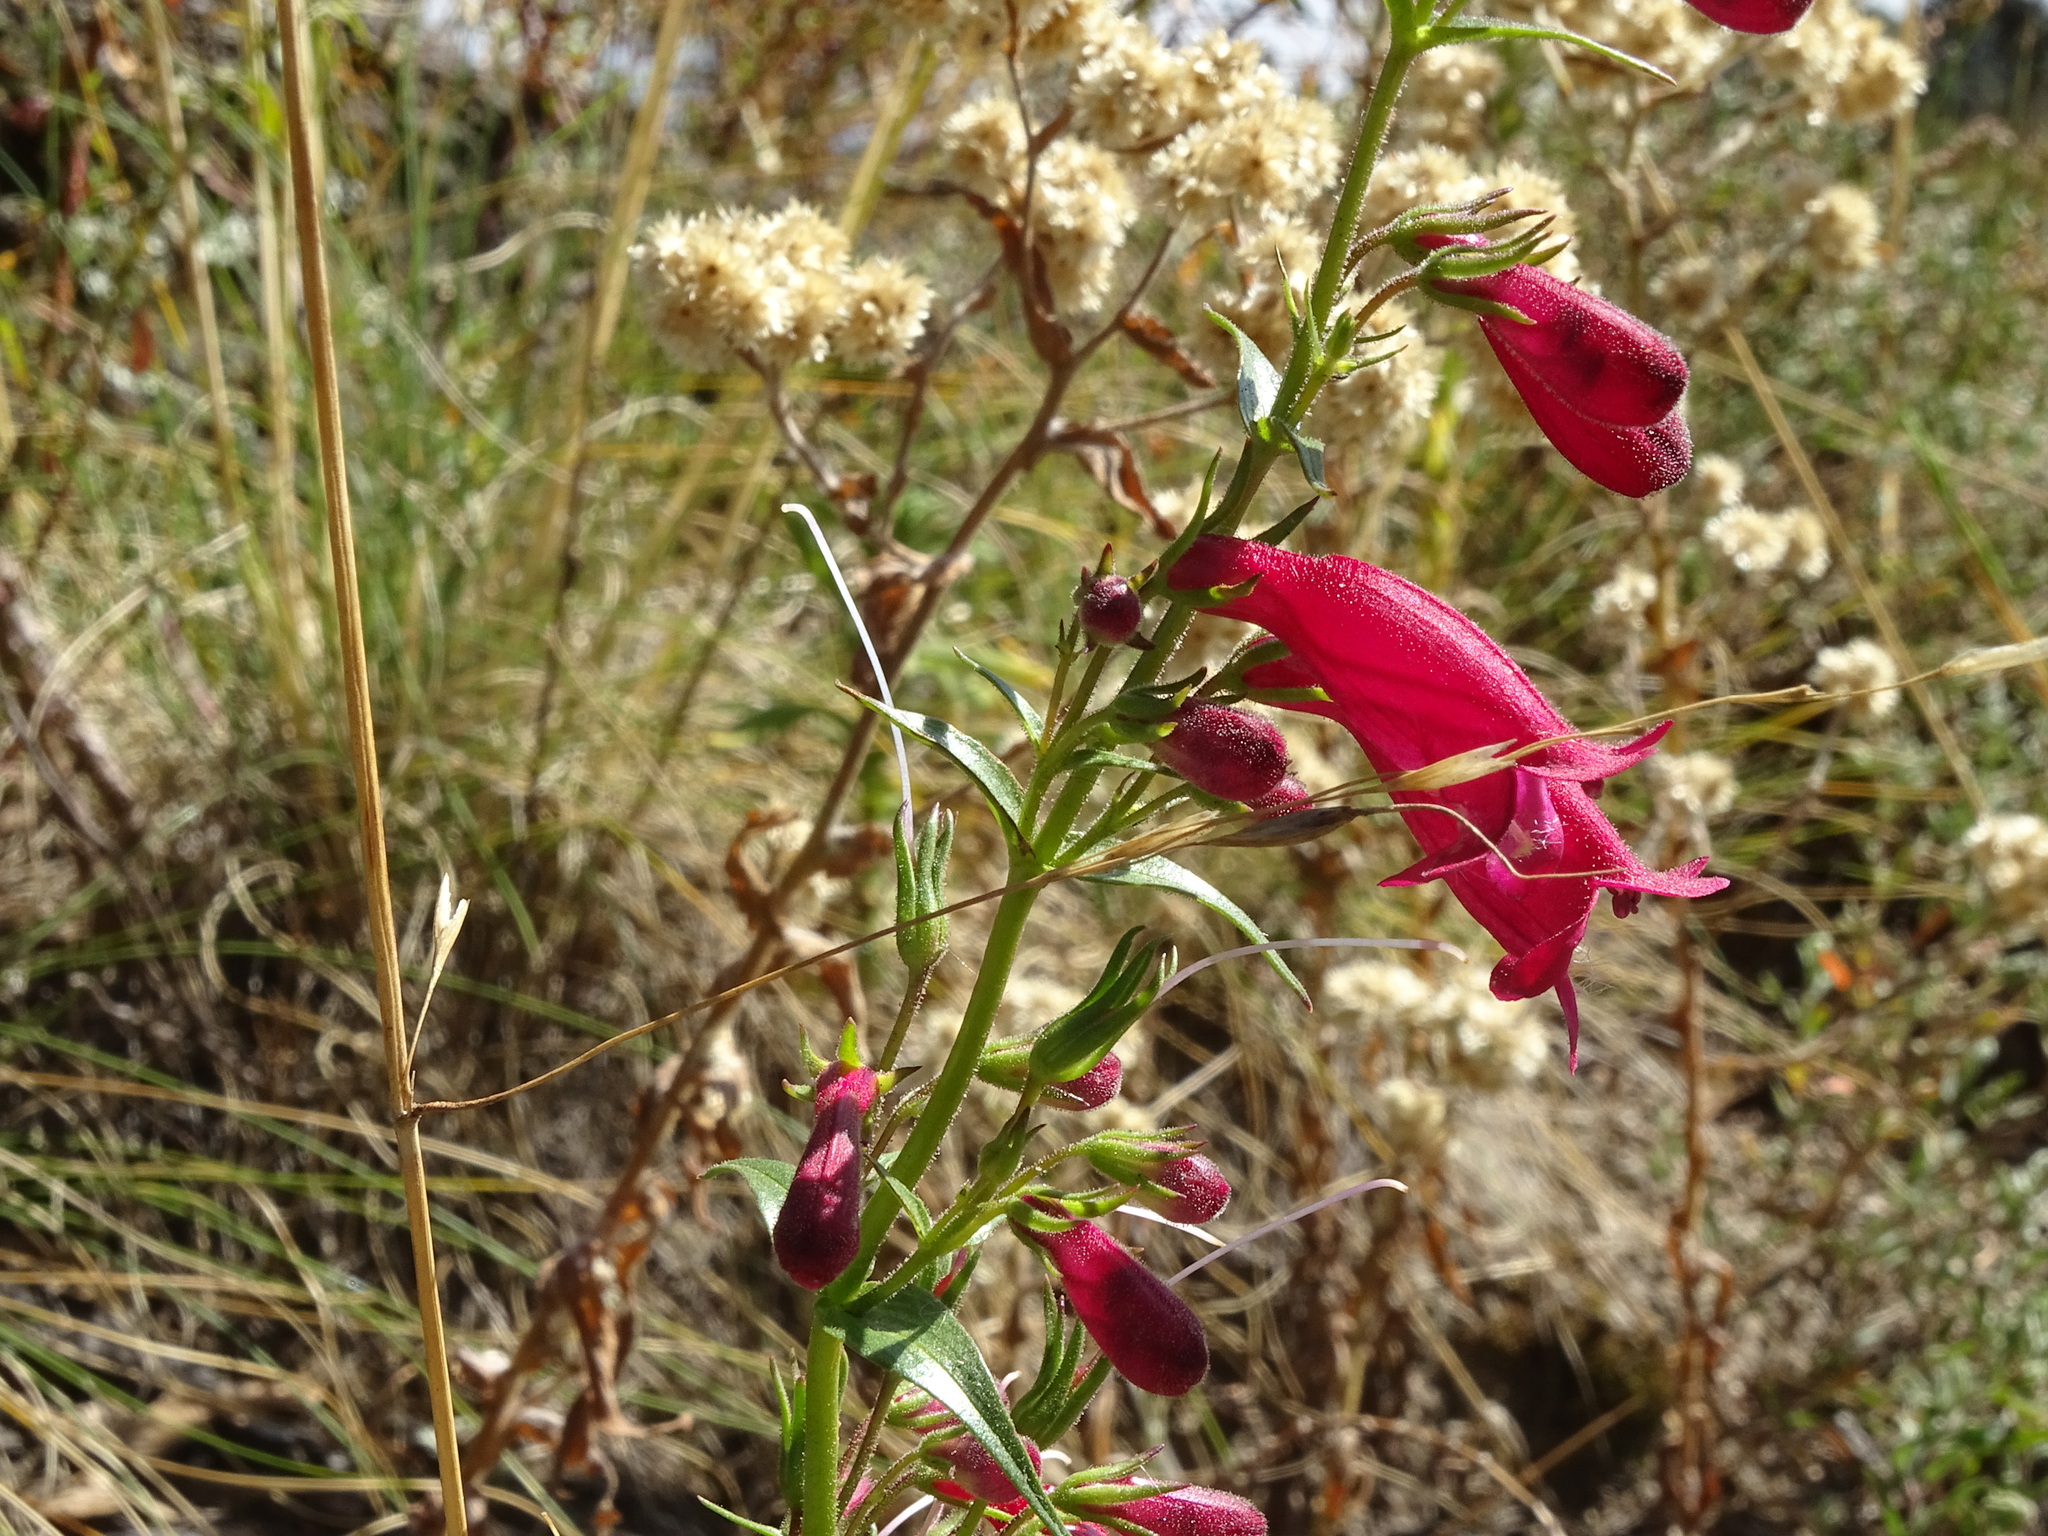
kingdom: Plantae
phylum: Tracheophyta
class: Magnoliopsida
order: Lamiales
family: Plantaginaceae
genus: Penstemon
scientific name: Penstemon roseus
